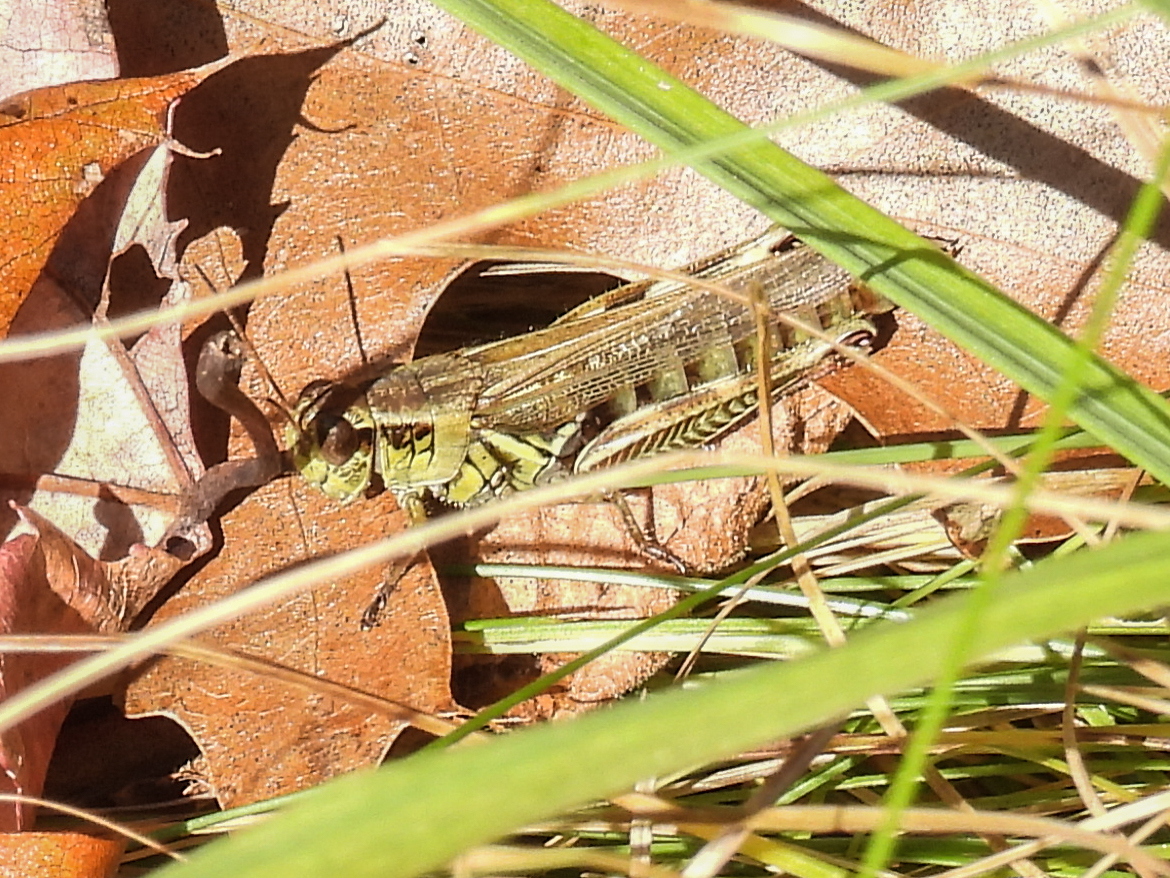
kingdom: Animalia
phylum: Arthropoda
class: Insecta
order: Orthoptera
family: Acrididae
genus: Melanoplus
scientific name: Melanoplus femurrubrum
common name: Red-legged grasshopper
